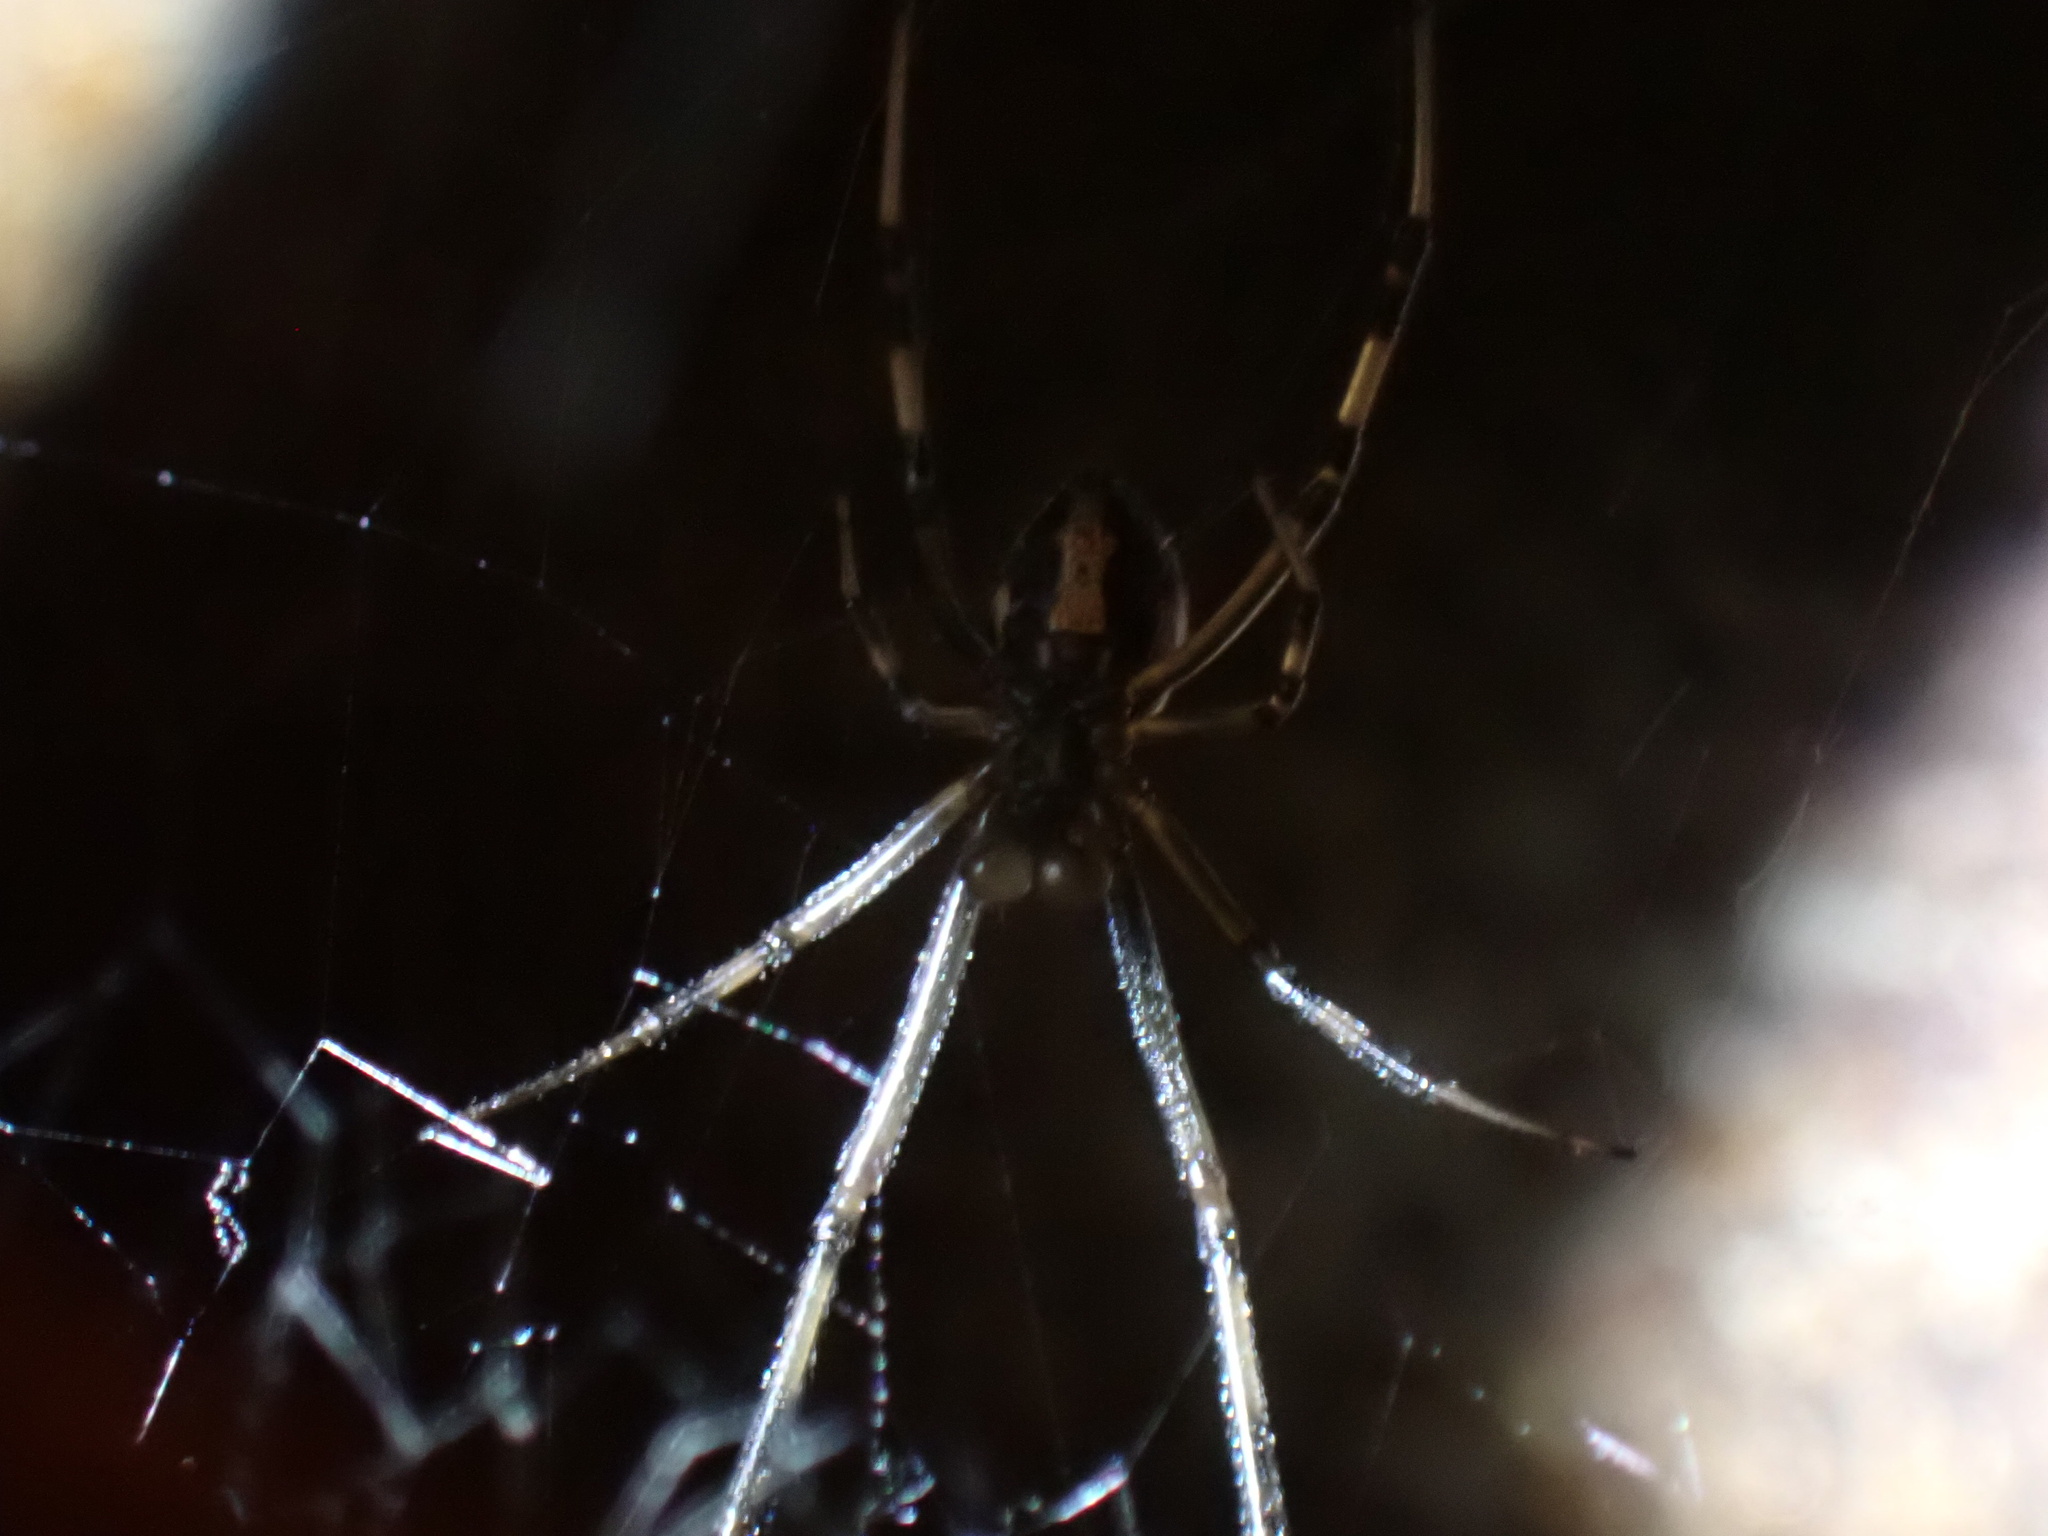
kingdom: Animalia
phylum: Arthropoda
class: Arachnida
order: Araneae
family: Theridiidae
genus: Latrodectus
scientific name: Latrodectus hesperus
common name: Western black widow
